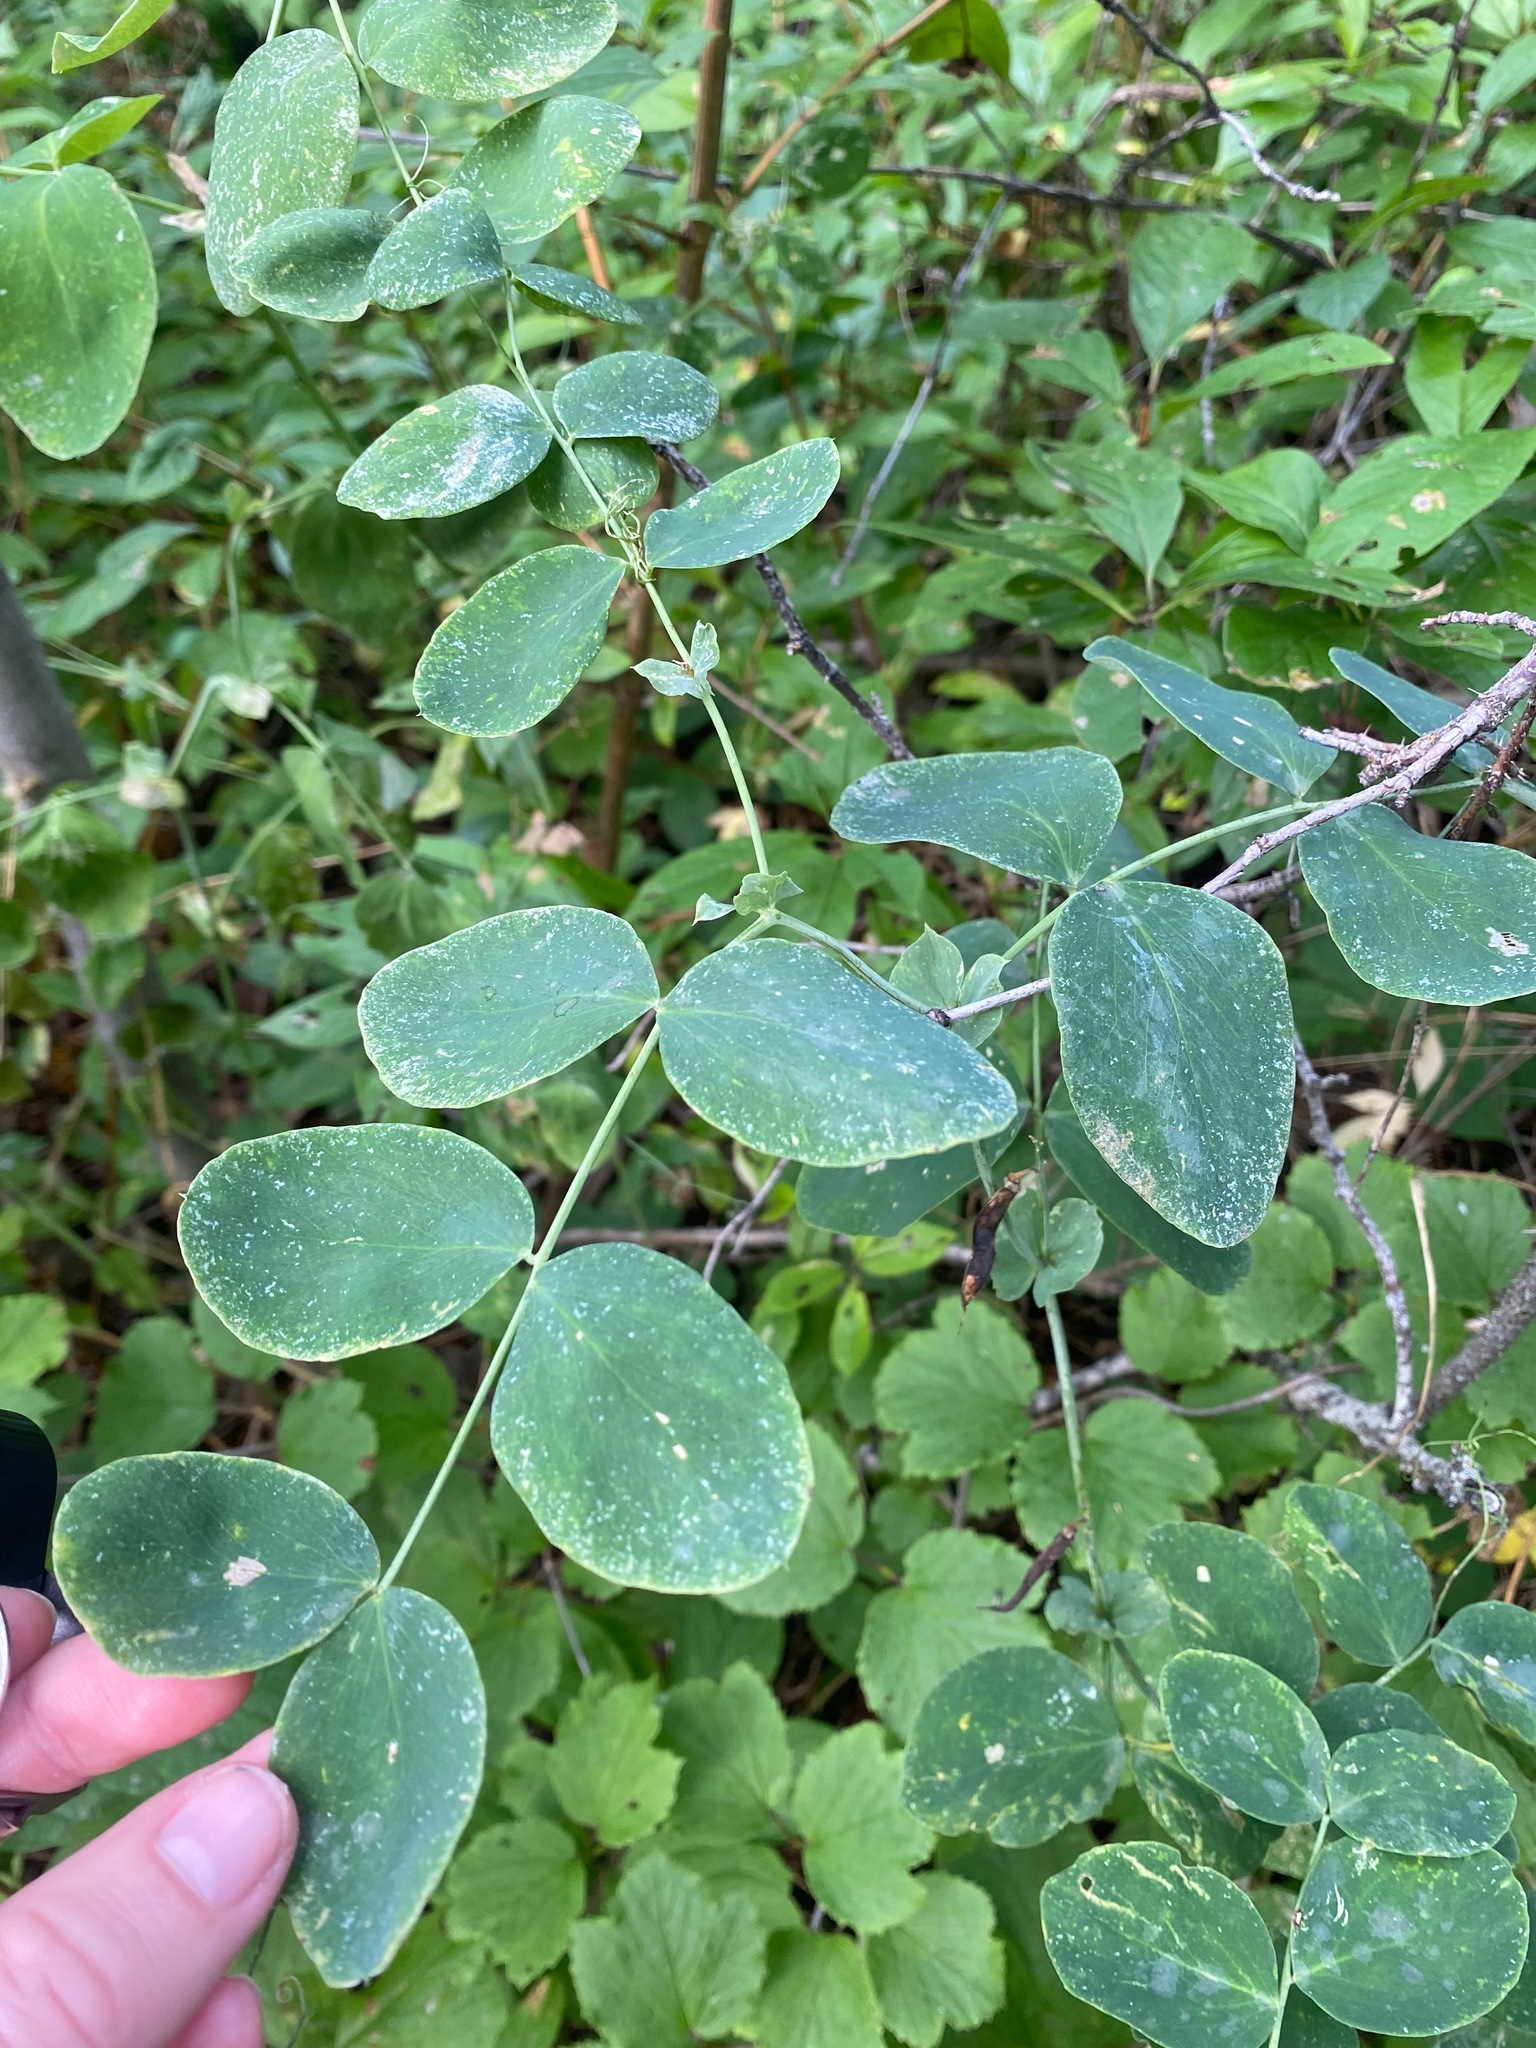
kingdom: Plantae
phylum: Tracheophyta
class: Magnoliopsida
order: Fabales
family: Fabaceae
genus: Lathyrus
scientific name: Lathyrus ochroleucus
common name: Pale vetchling
